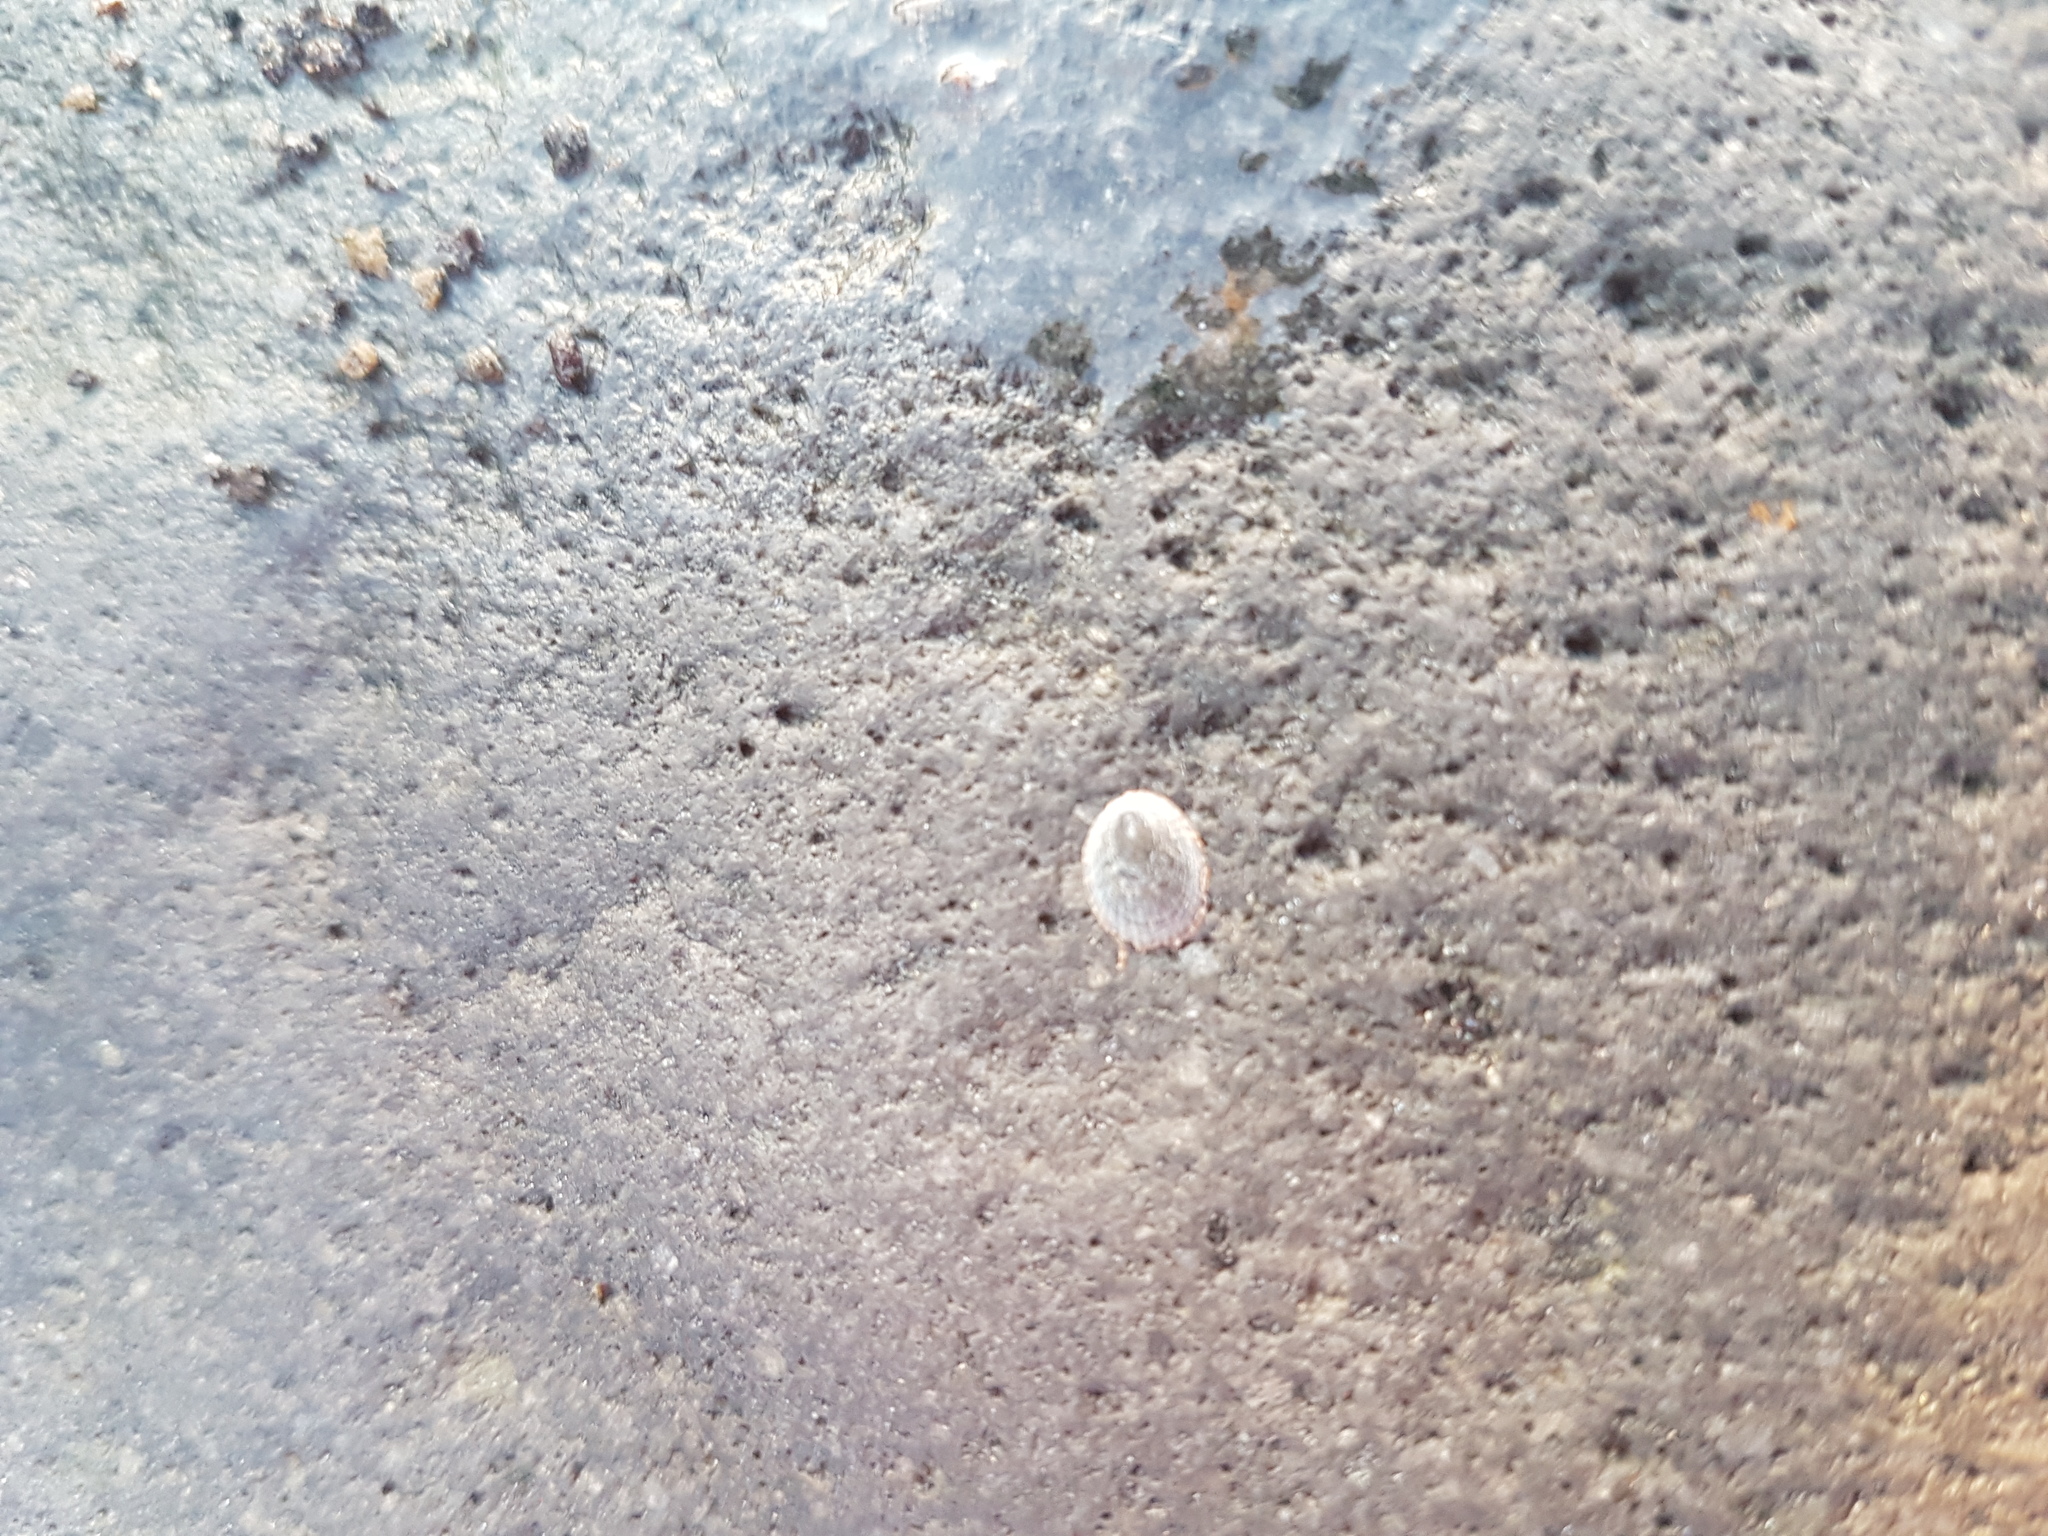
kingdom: Animalia
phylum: Mollusca
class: Gastropoda
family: Lottiidae
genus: Notoacmea
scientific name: Notoacmea
